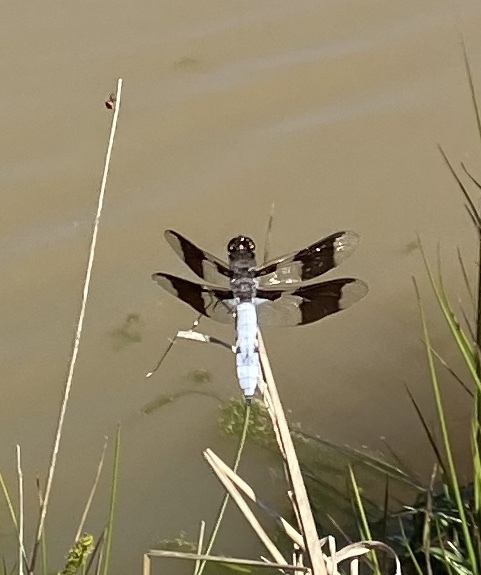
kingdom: Animalia
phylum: Arthropoda
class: Insecta
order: Odonata
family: Libellulidae
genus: Plathemis
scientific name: Plathemis lydia
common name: Common whitetail
